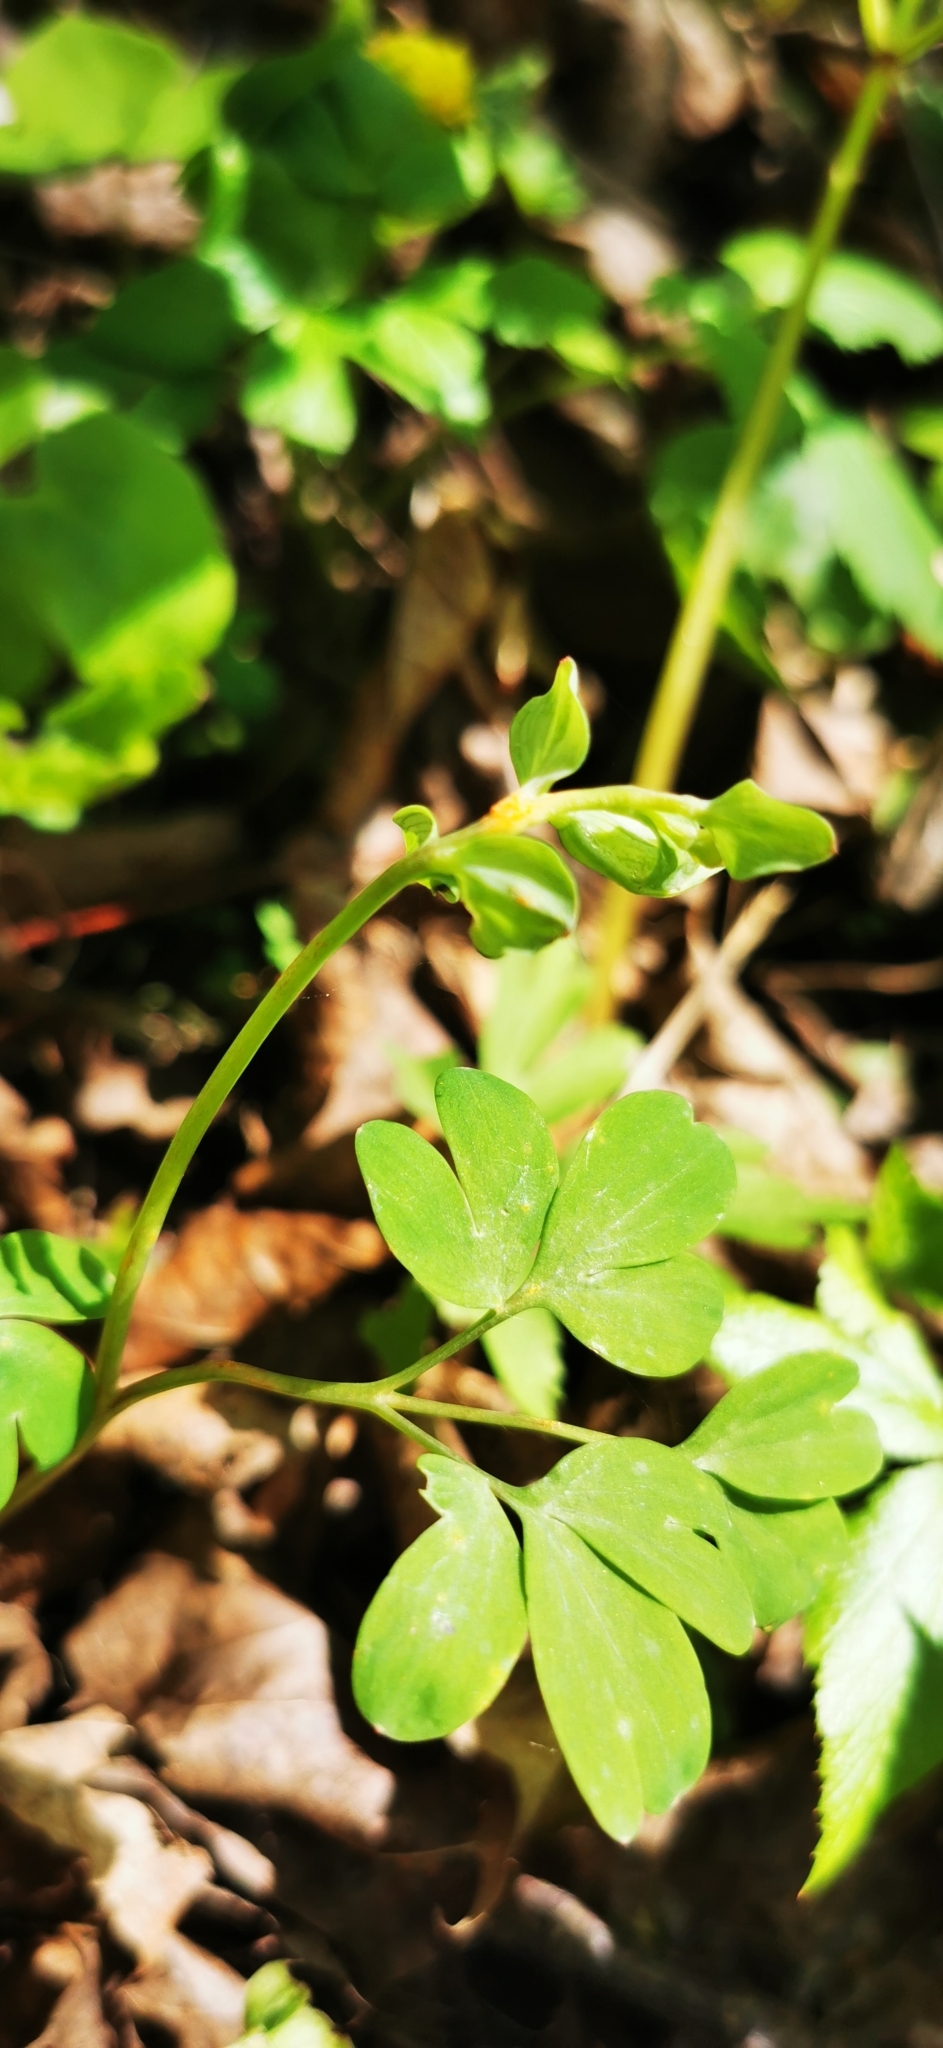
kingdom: Plantae
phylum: Tracheophyta
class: Magnoliopsida
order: Ranunculales
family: Papaveraceae
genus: Corydalis
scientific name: Corydalis intermedia
